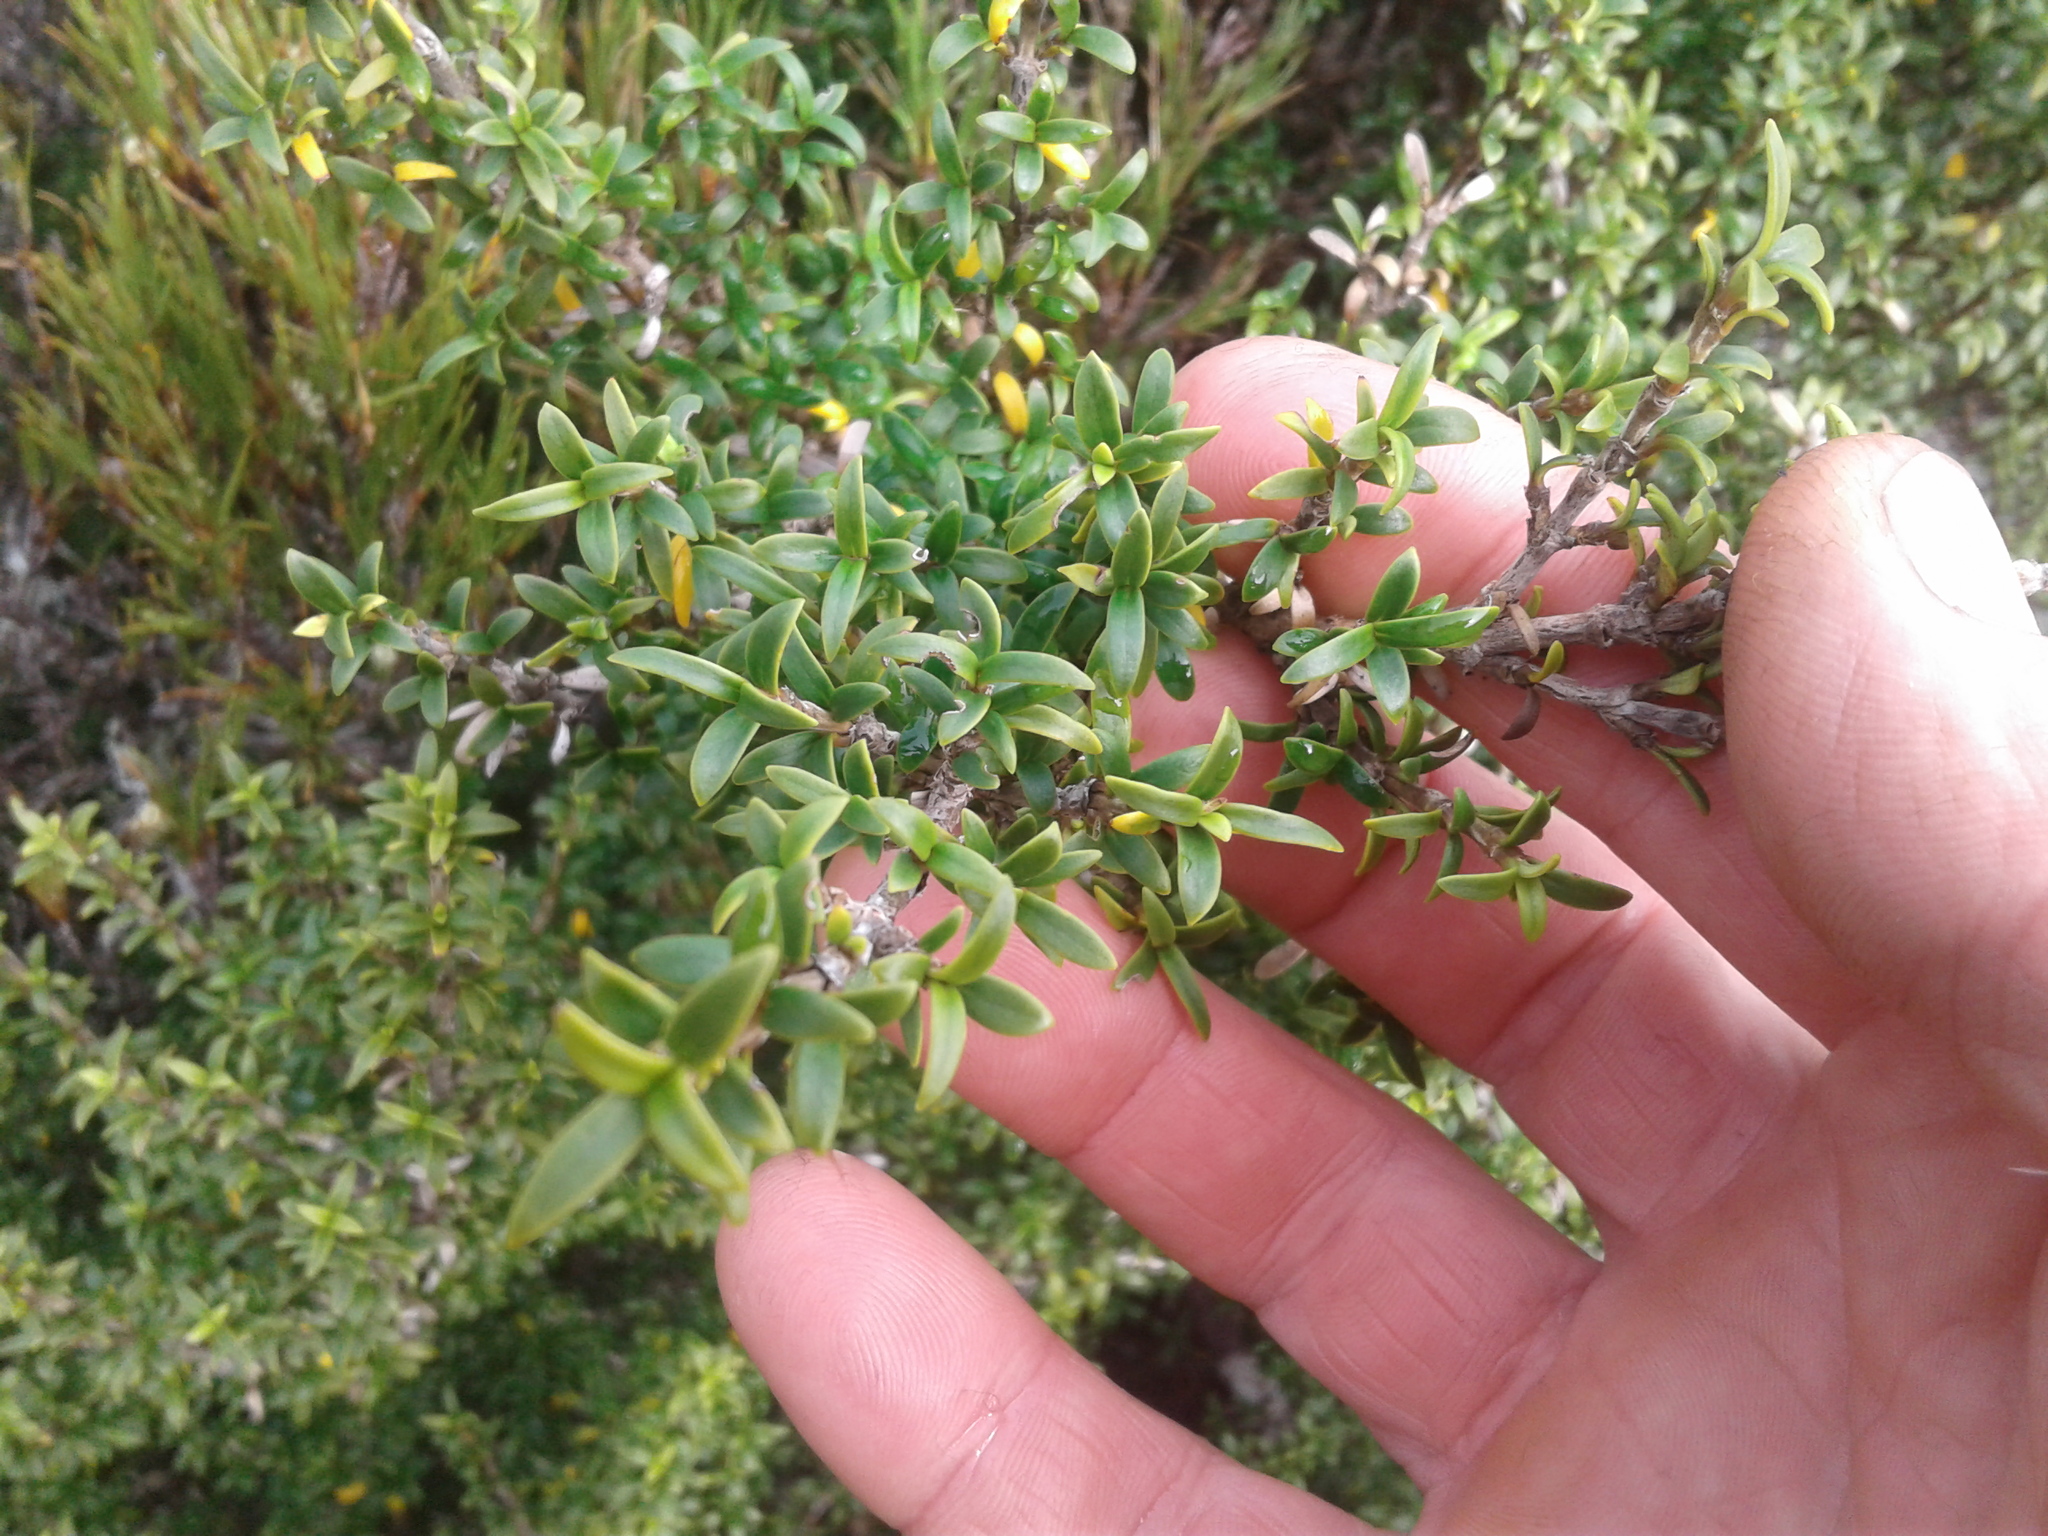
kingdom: Plantae
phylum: Tracheophyta
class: Magnoliopsida
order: Gentianales
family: Rubiaceae
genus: Coprosma
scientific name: Coprosma pseudocuneata
